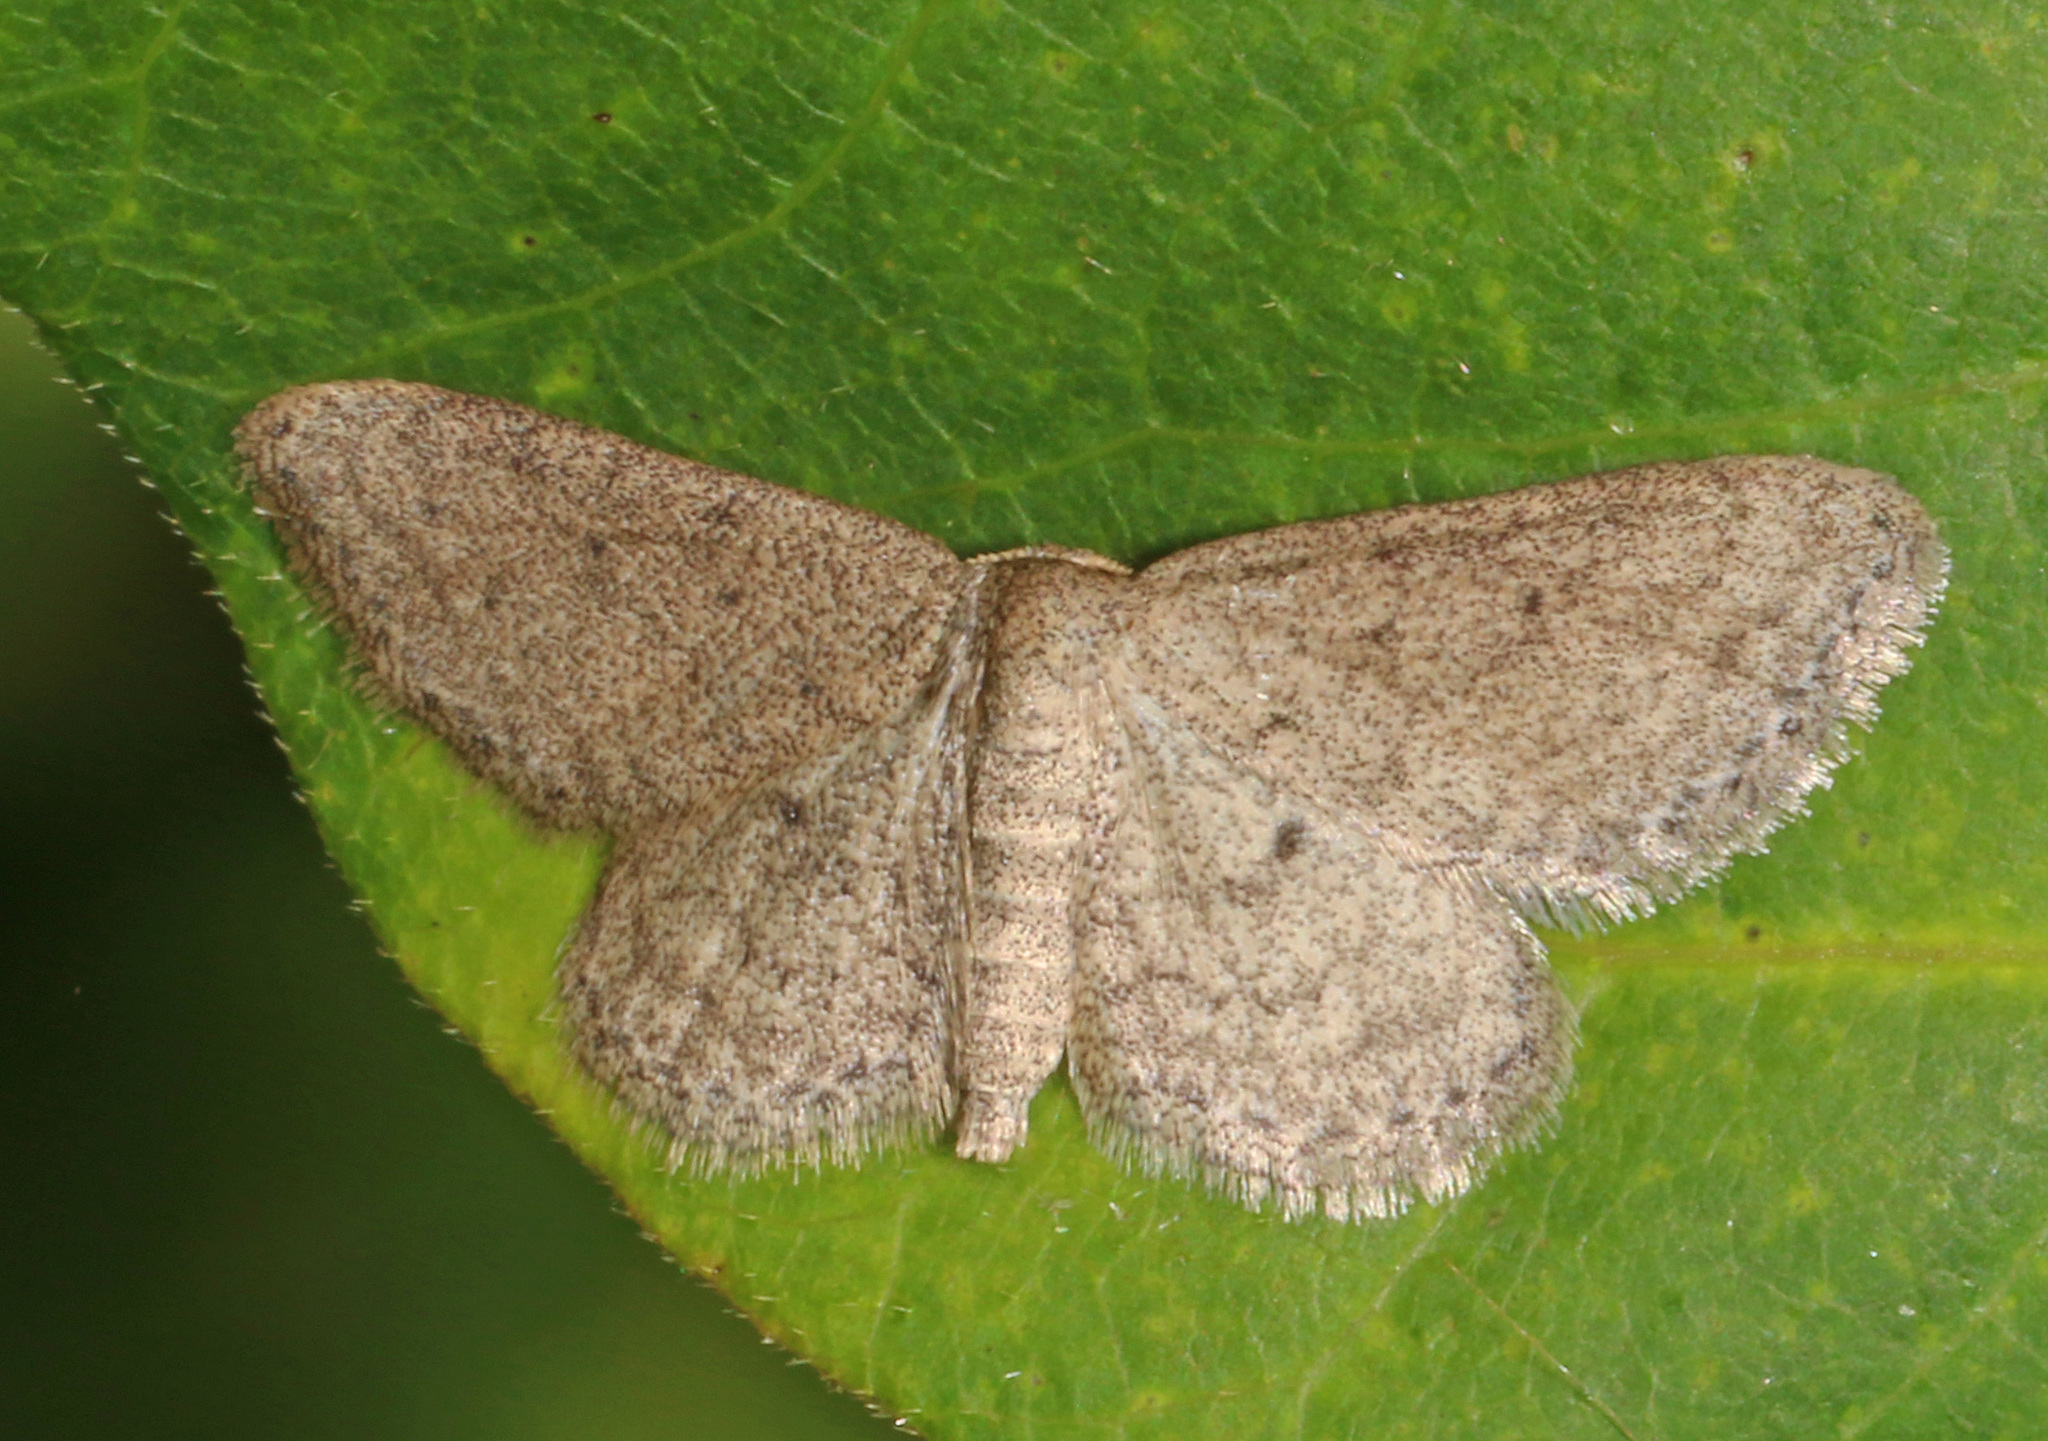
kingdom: Animalia
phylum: Arthropoda
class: Insecta
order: Lepidoptera
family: Geometridae
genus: Lobocleta
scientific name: Lobocleta ossularia
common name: Drab brown wave
